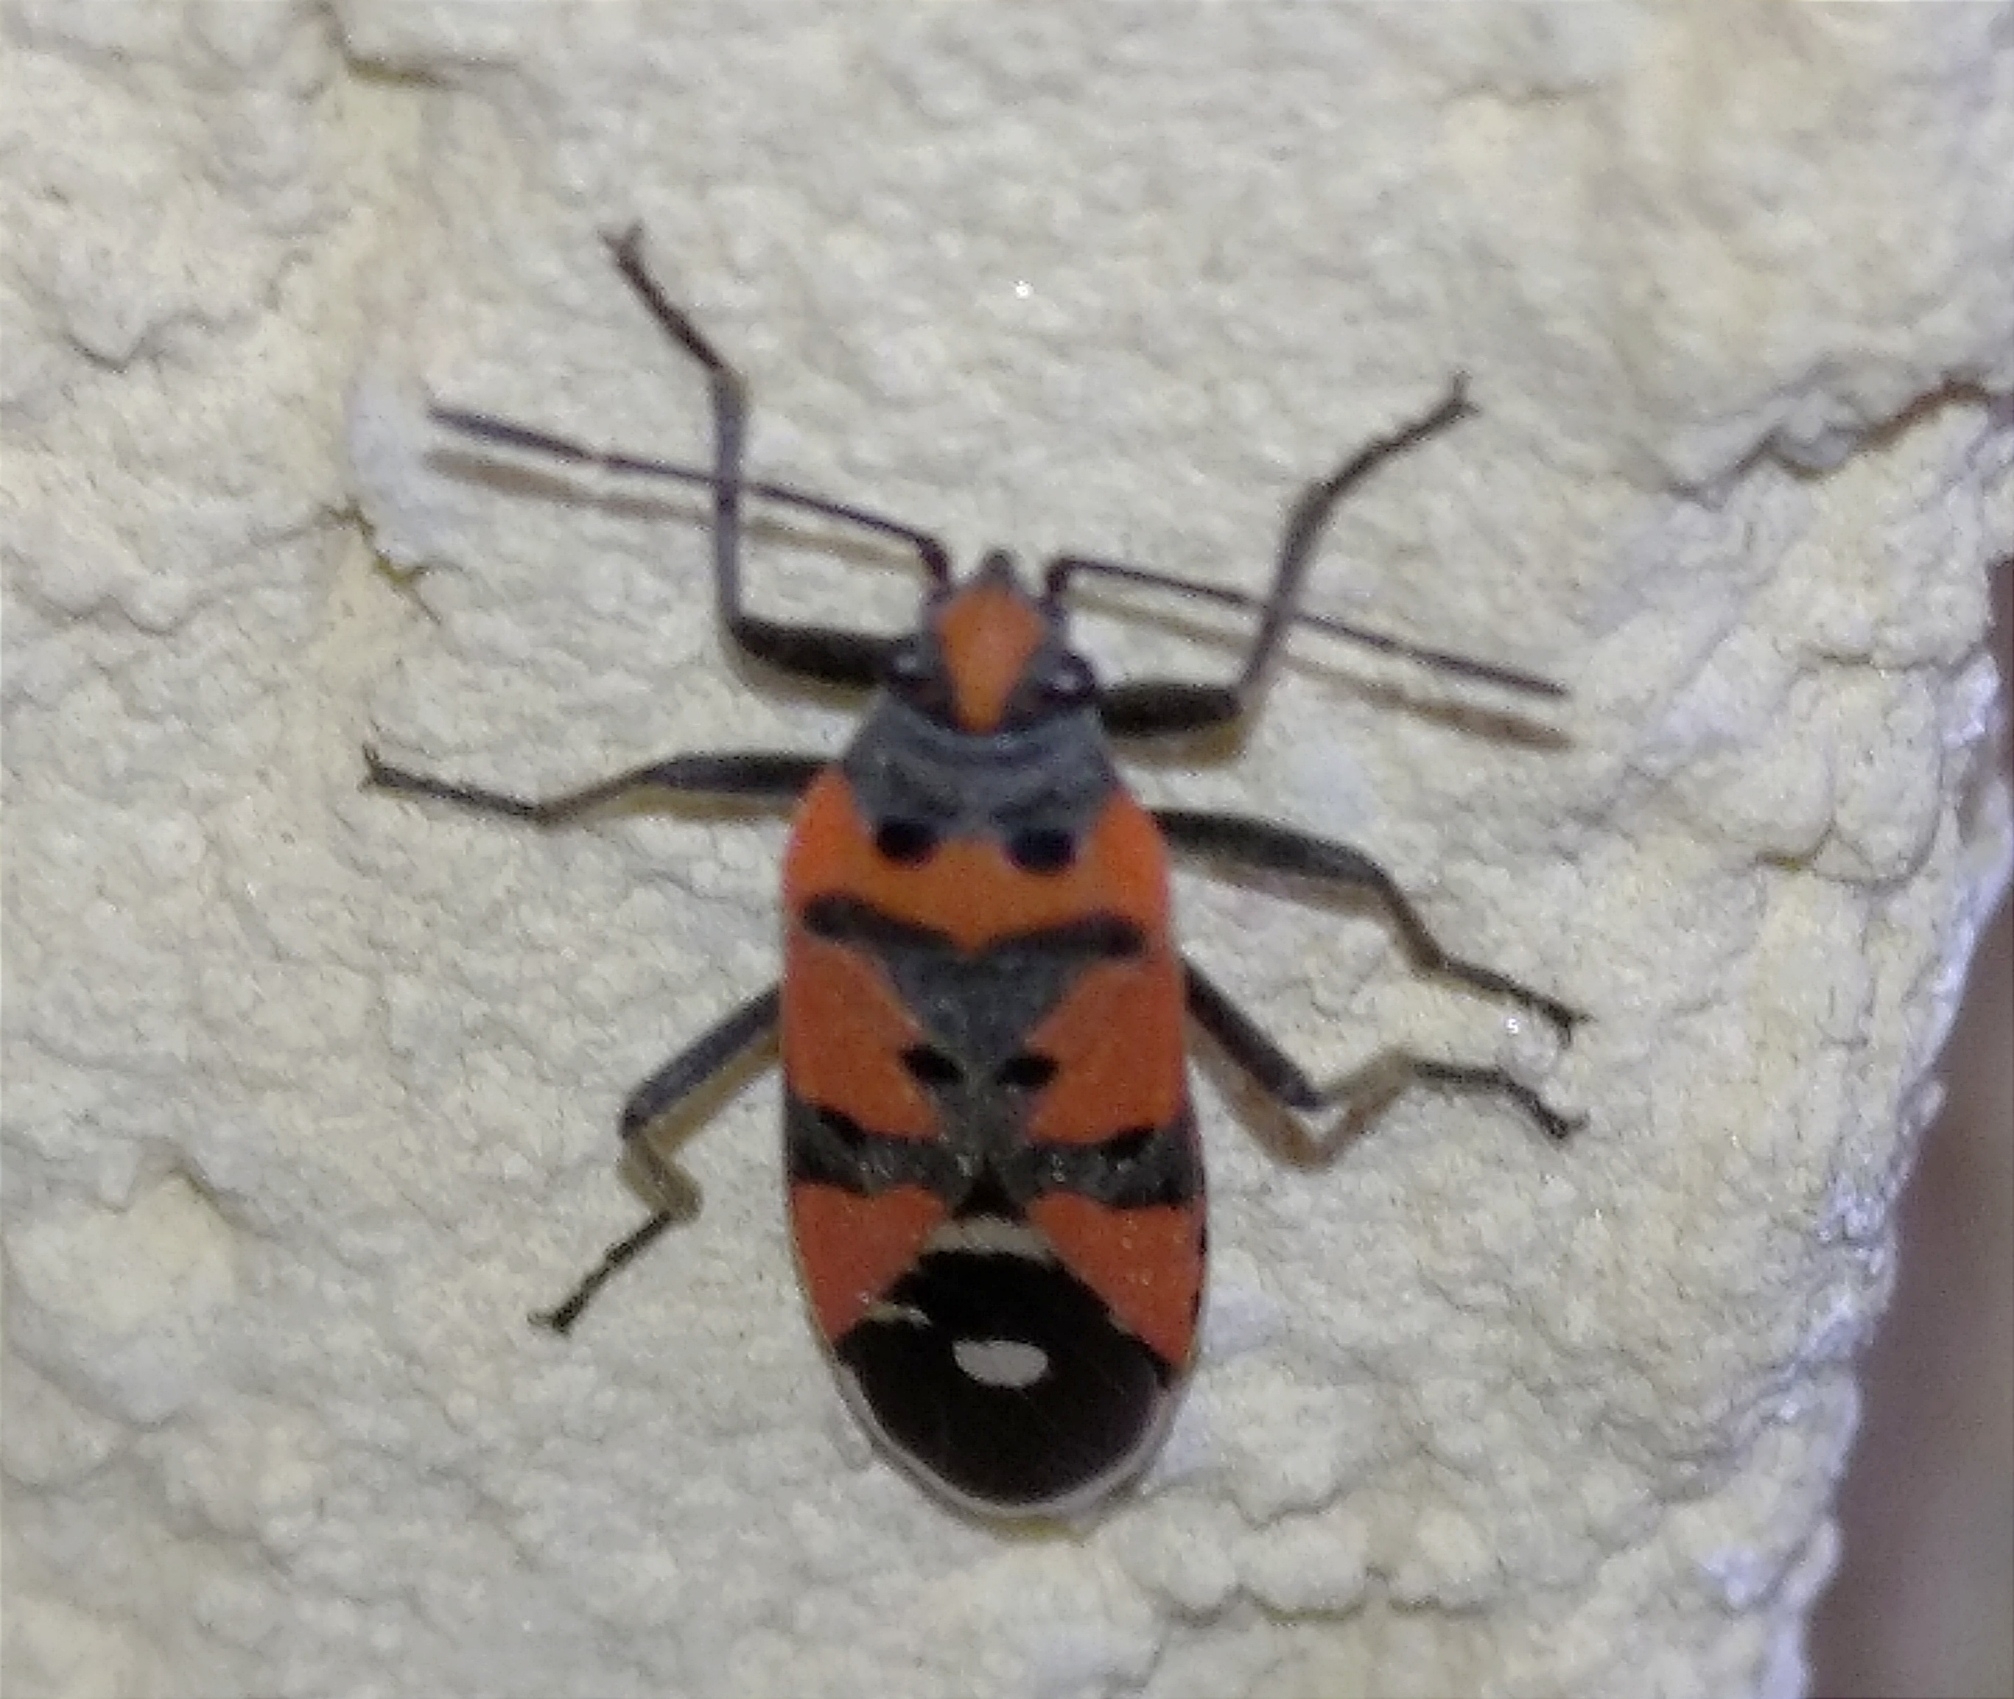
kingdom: Animalia
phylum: Arthropoda
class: Insecta
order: Hemiptera
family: Lygaeidae
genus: Lygaeus
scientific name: Lygaeus equestris
